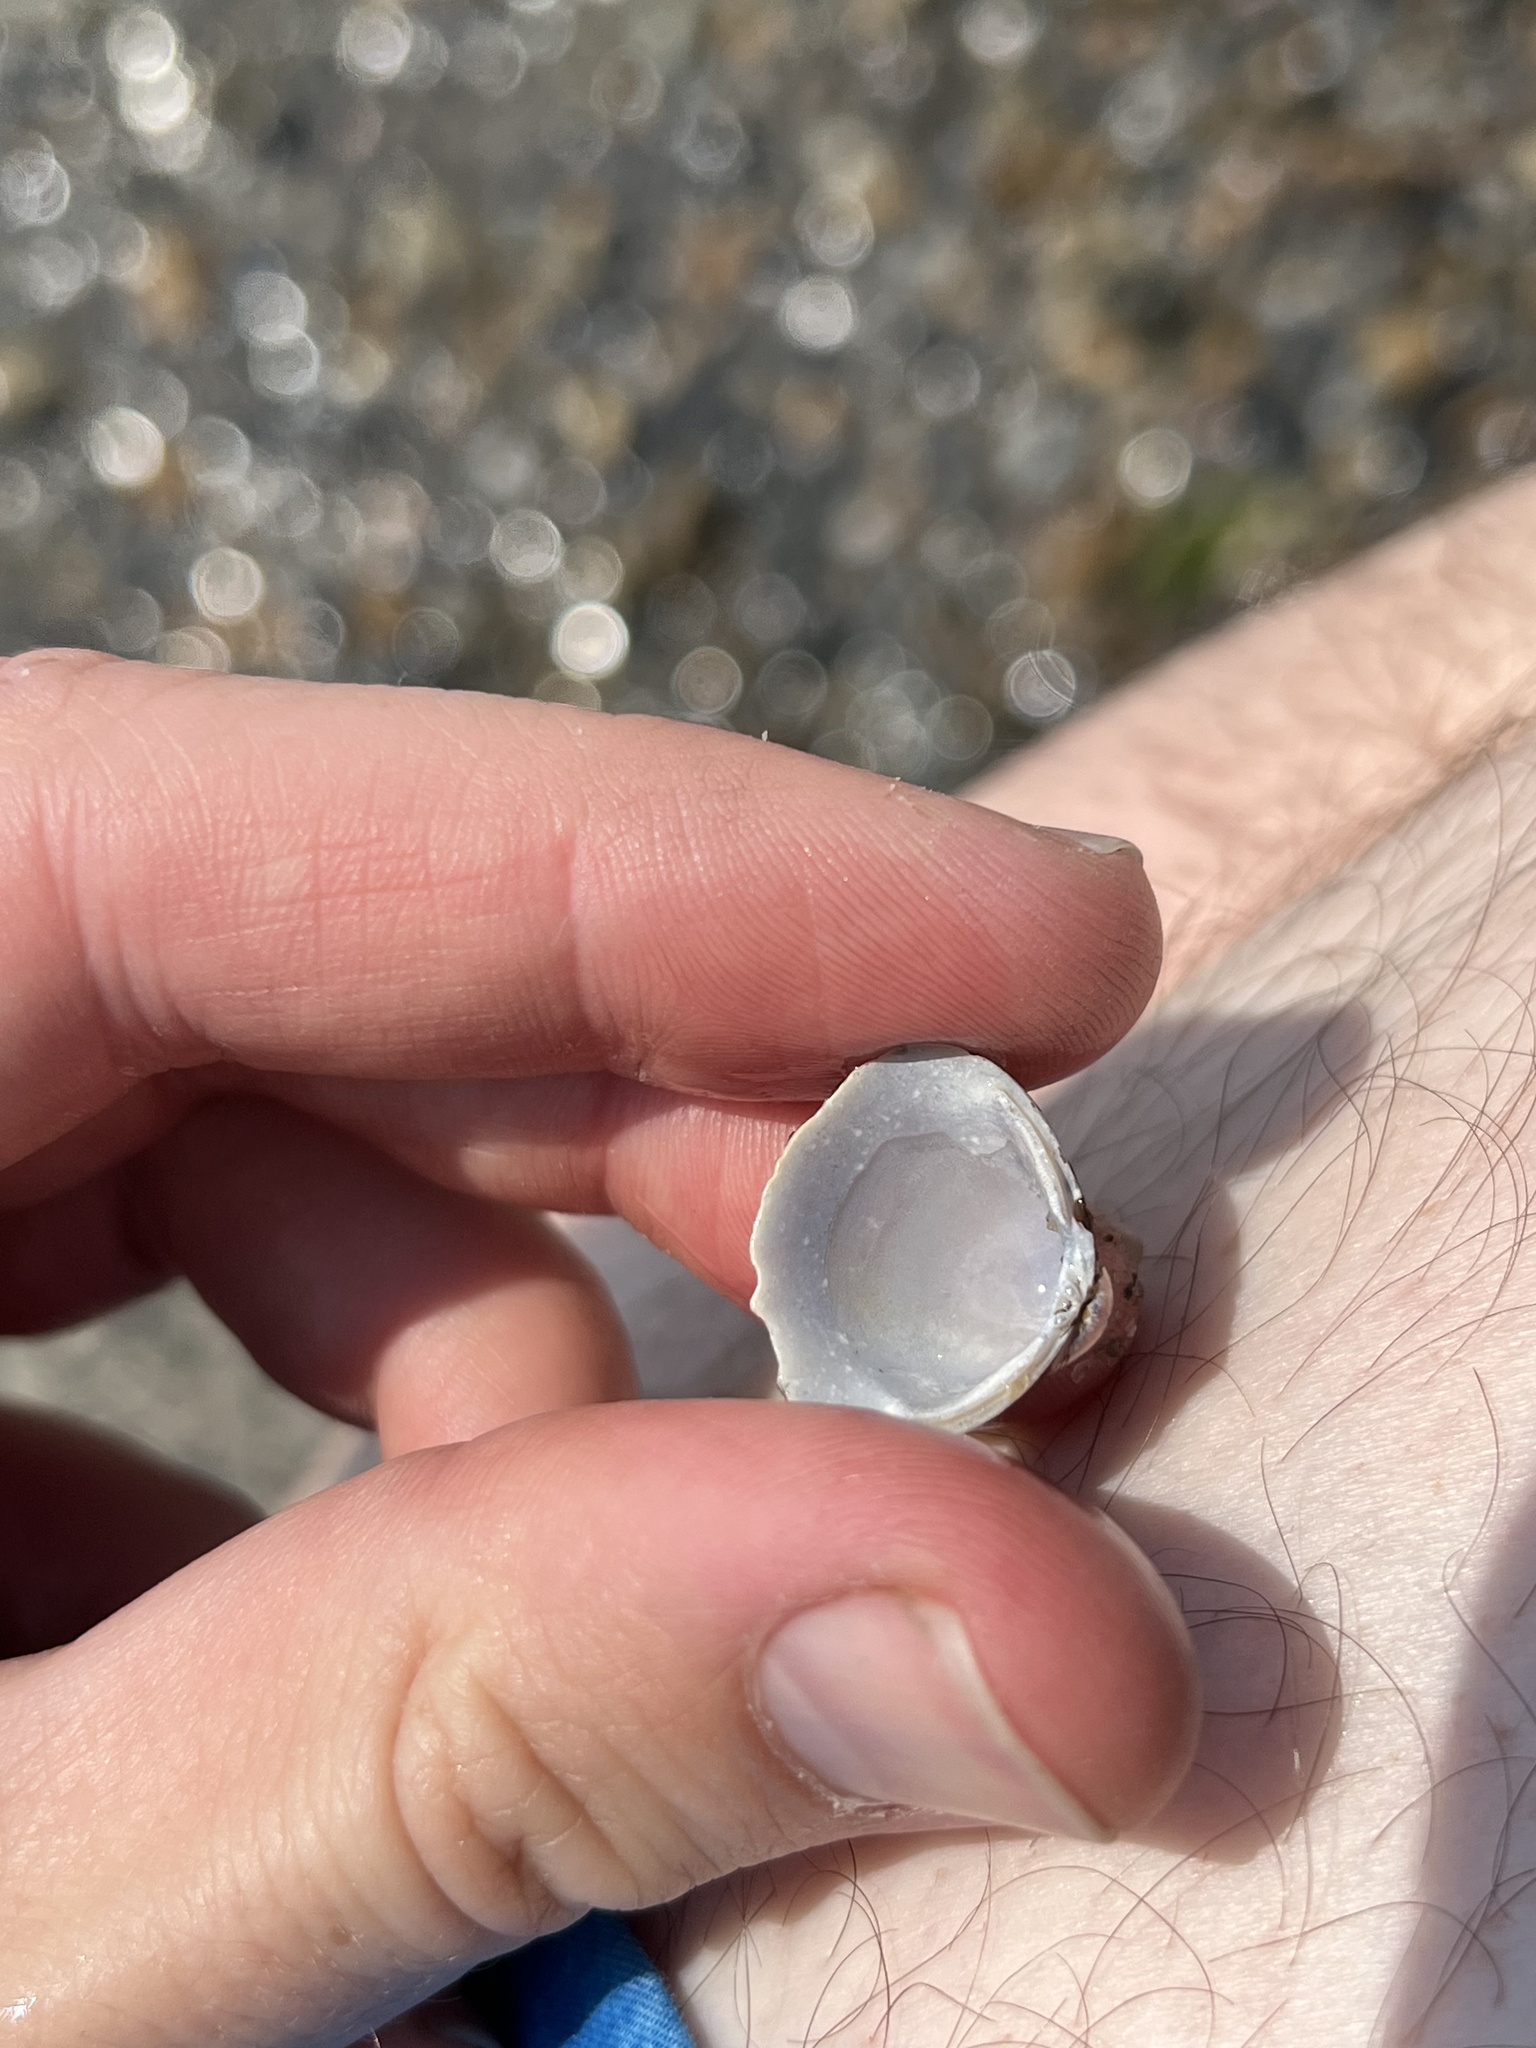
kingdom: Animalia
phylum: Mollusca
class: Bivalvia
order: Venerida
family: Cyrenidae
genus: Corbicula
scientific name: Corbicula fluminea
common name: Asian clam
